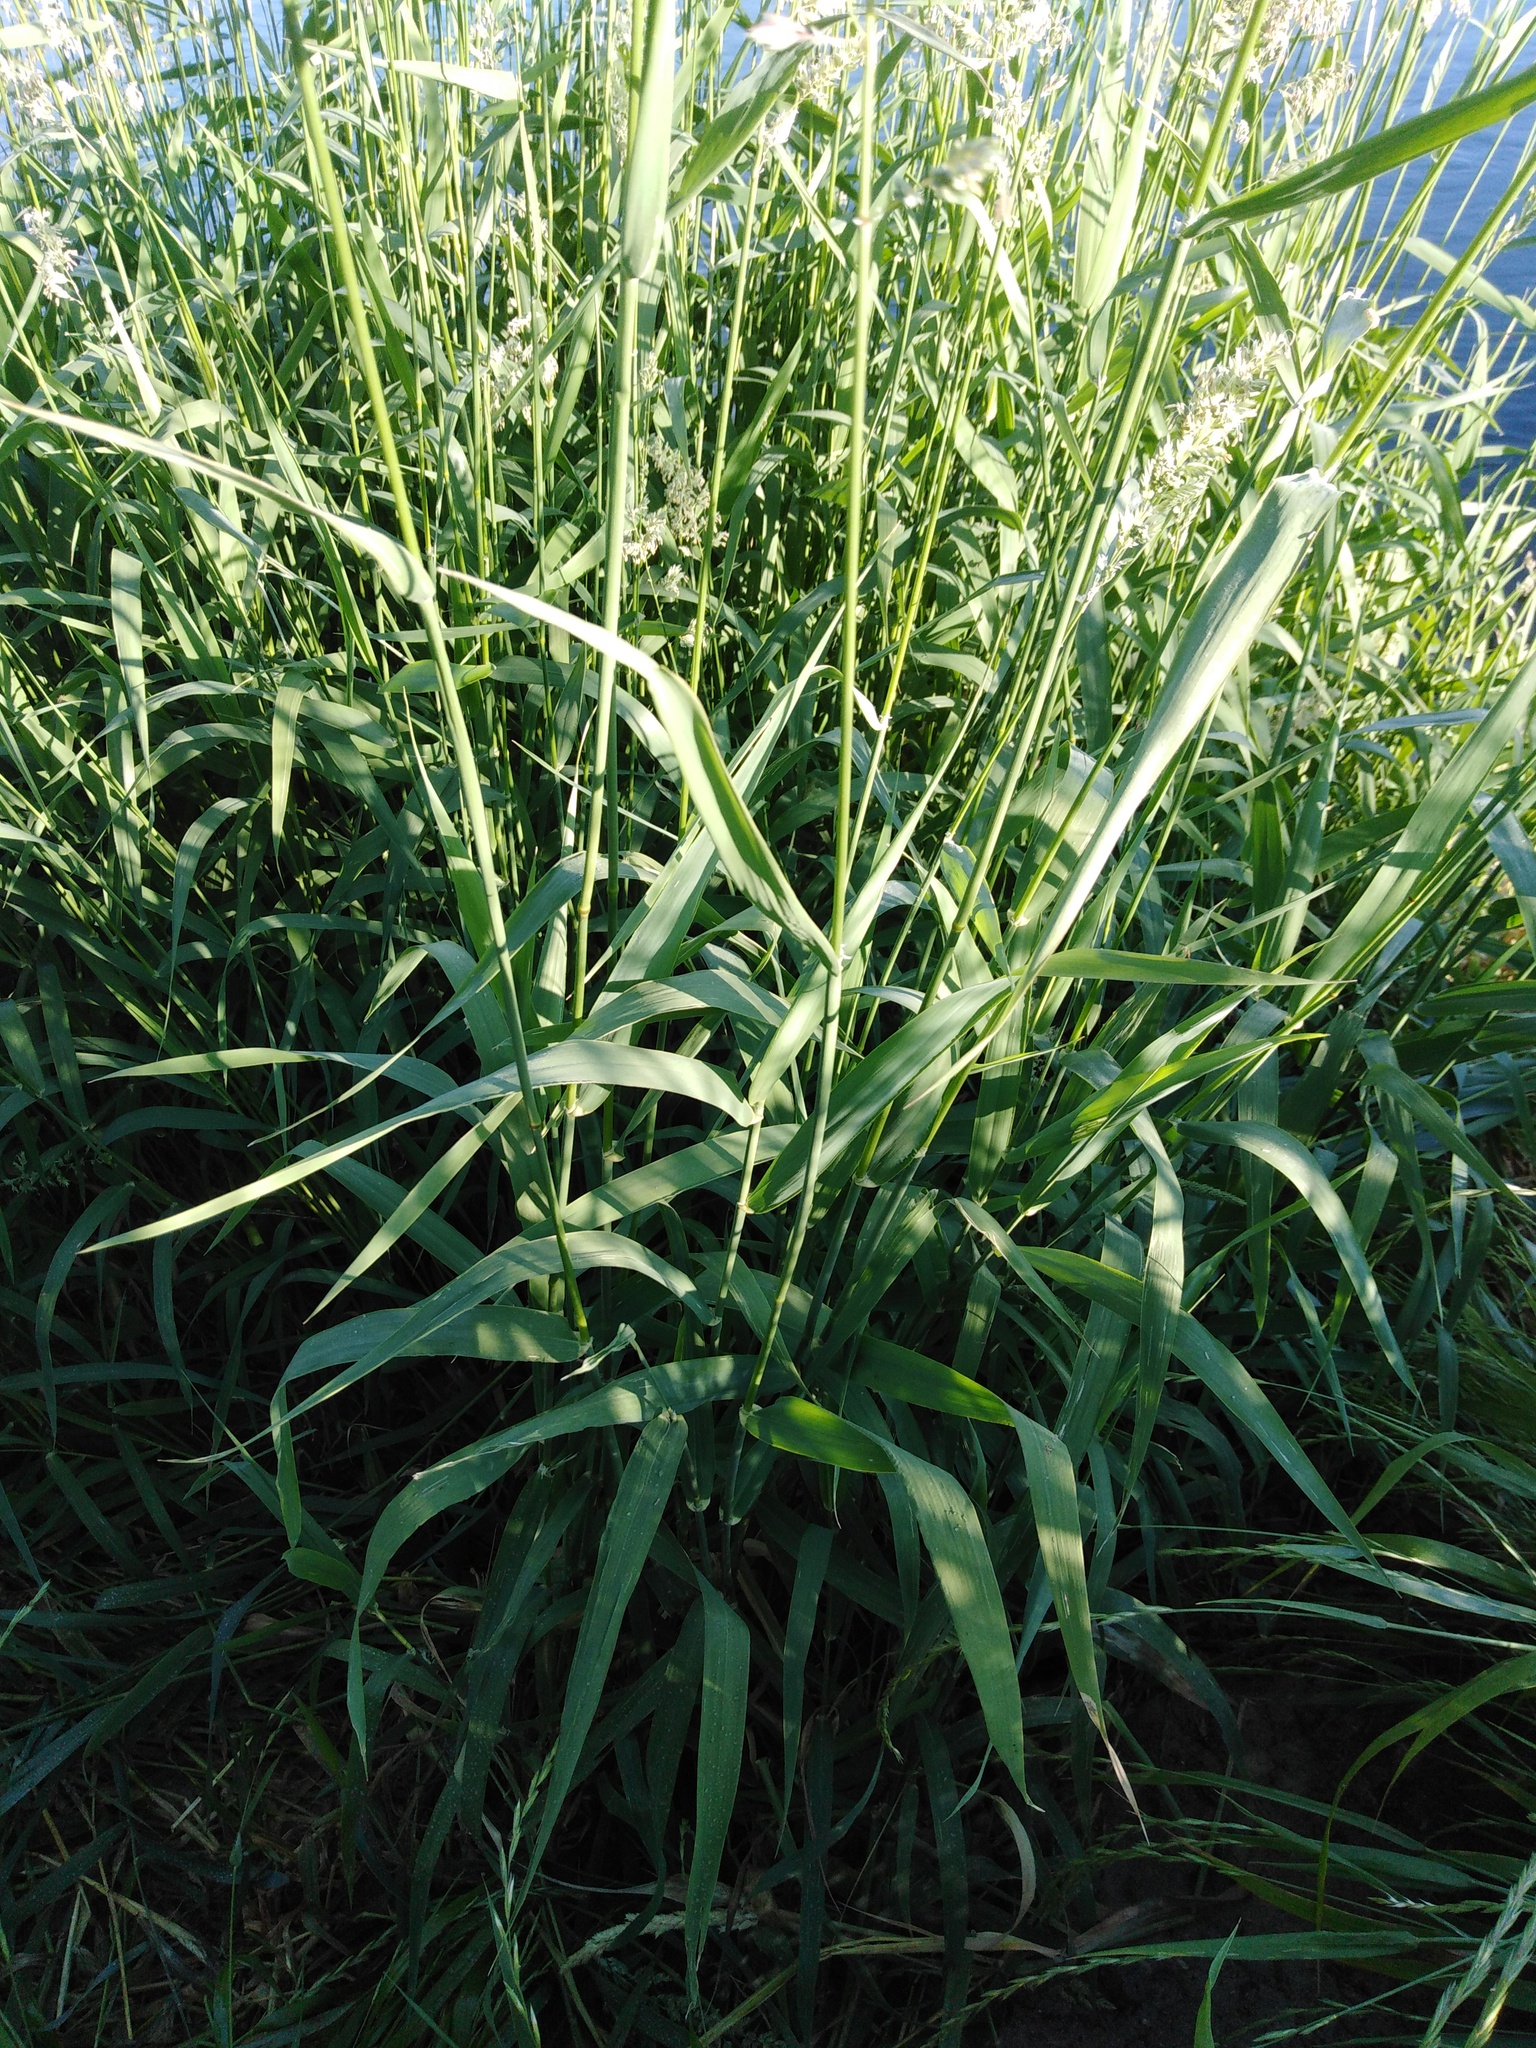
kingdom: Plantae
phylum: Tracheophyta
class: Liliopsida
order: Poales
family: Poaceae
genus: Phalaris
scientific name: Phalaris arundinacea
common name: Reed canary-grass
